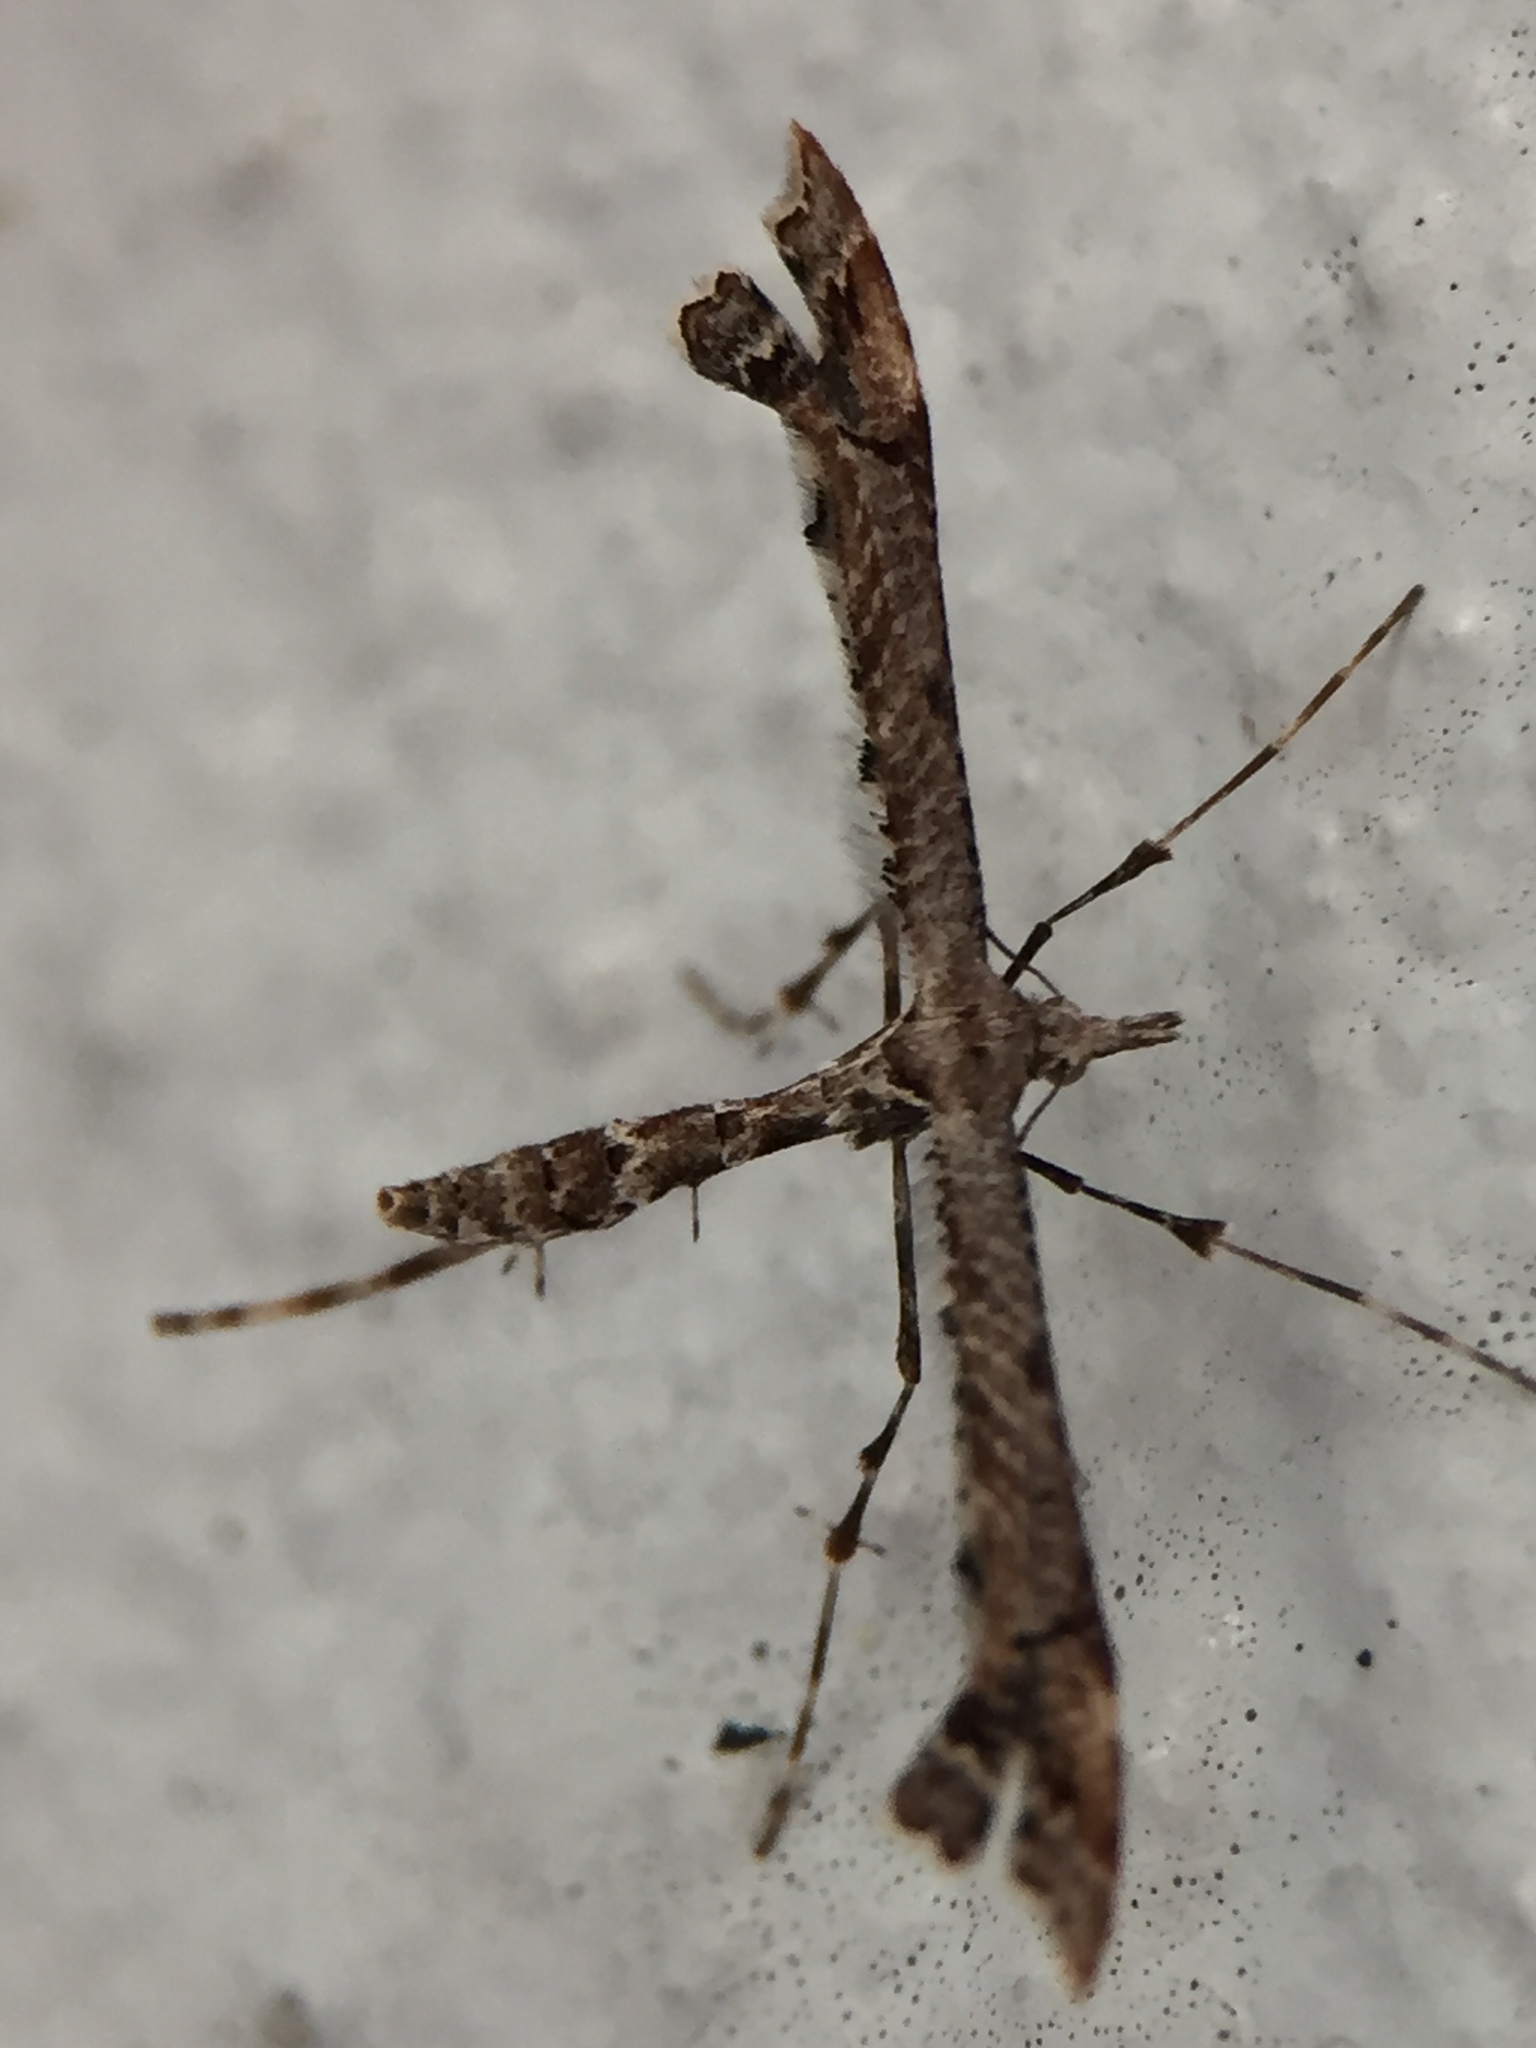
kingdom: Animalia
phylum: Arthropoda
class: Insecta
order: Lepidoptera
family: Pterophoridae
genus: Amblyptilia
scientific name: Amblyptilia repletalis
